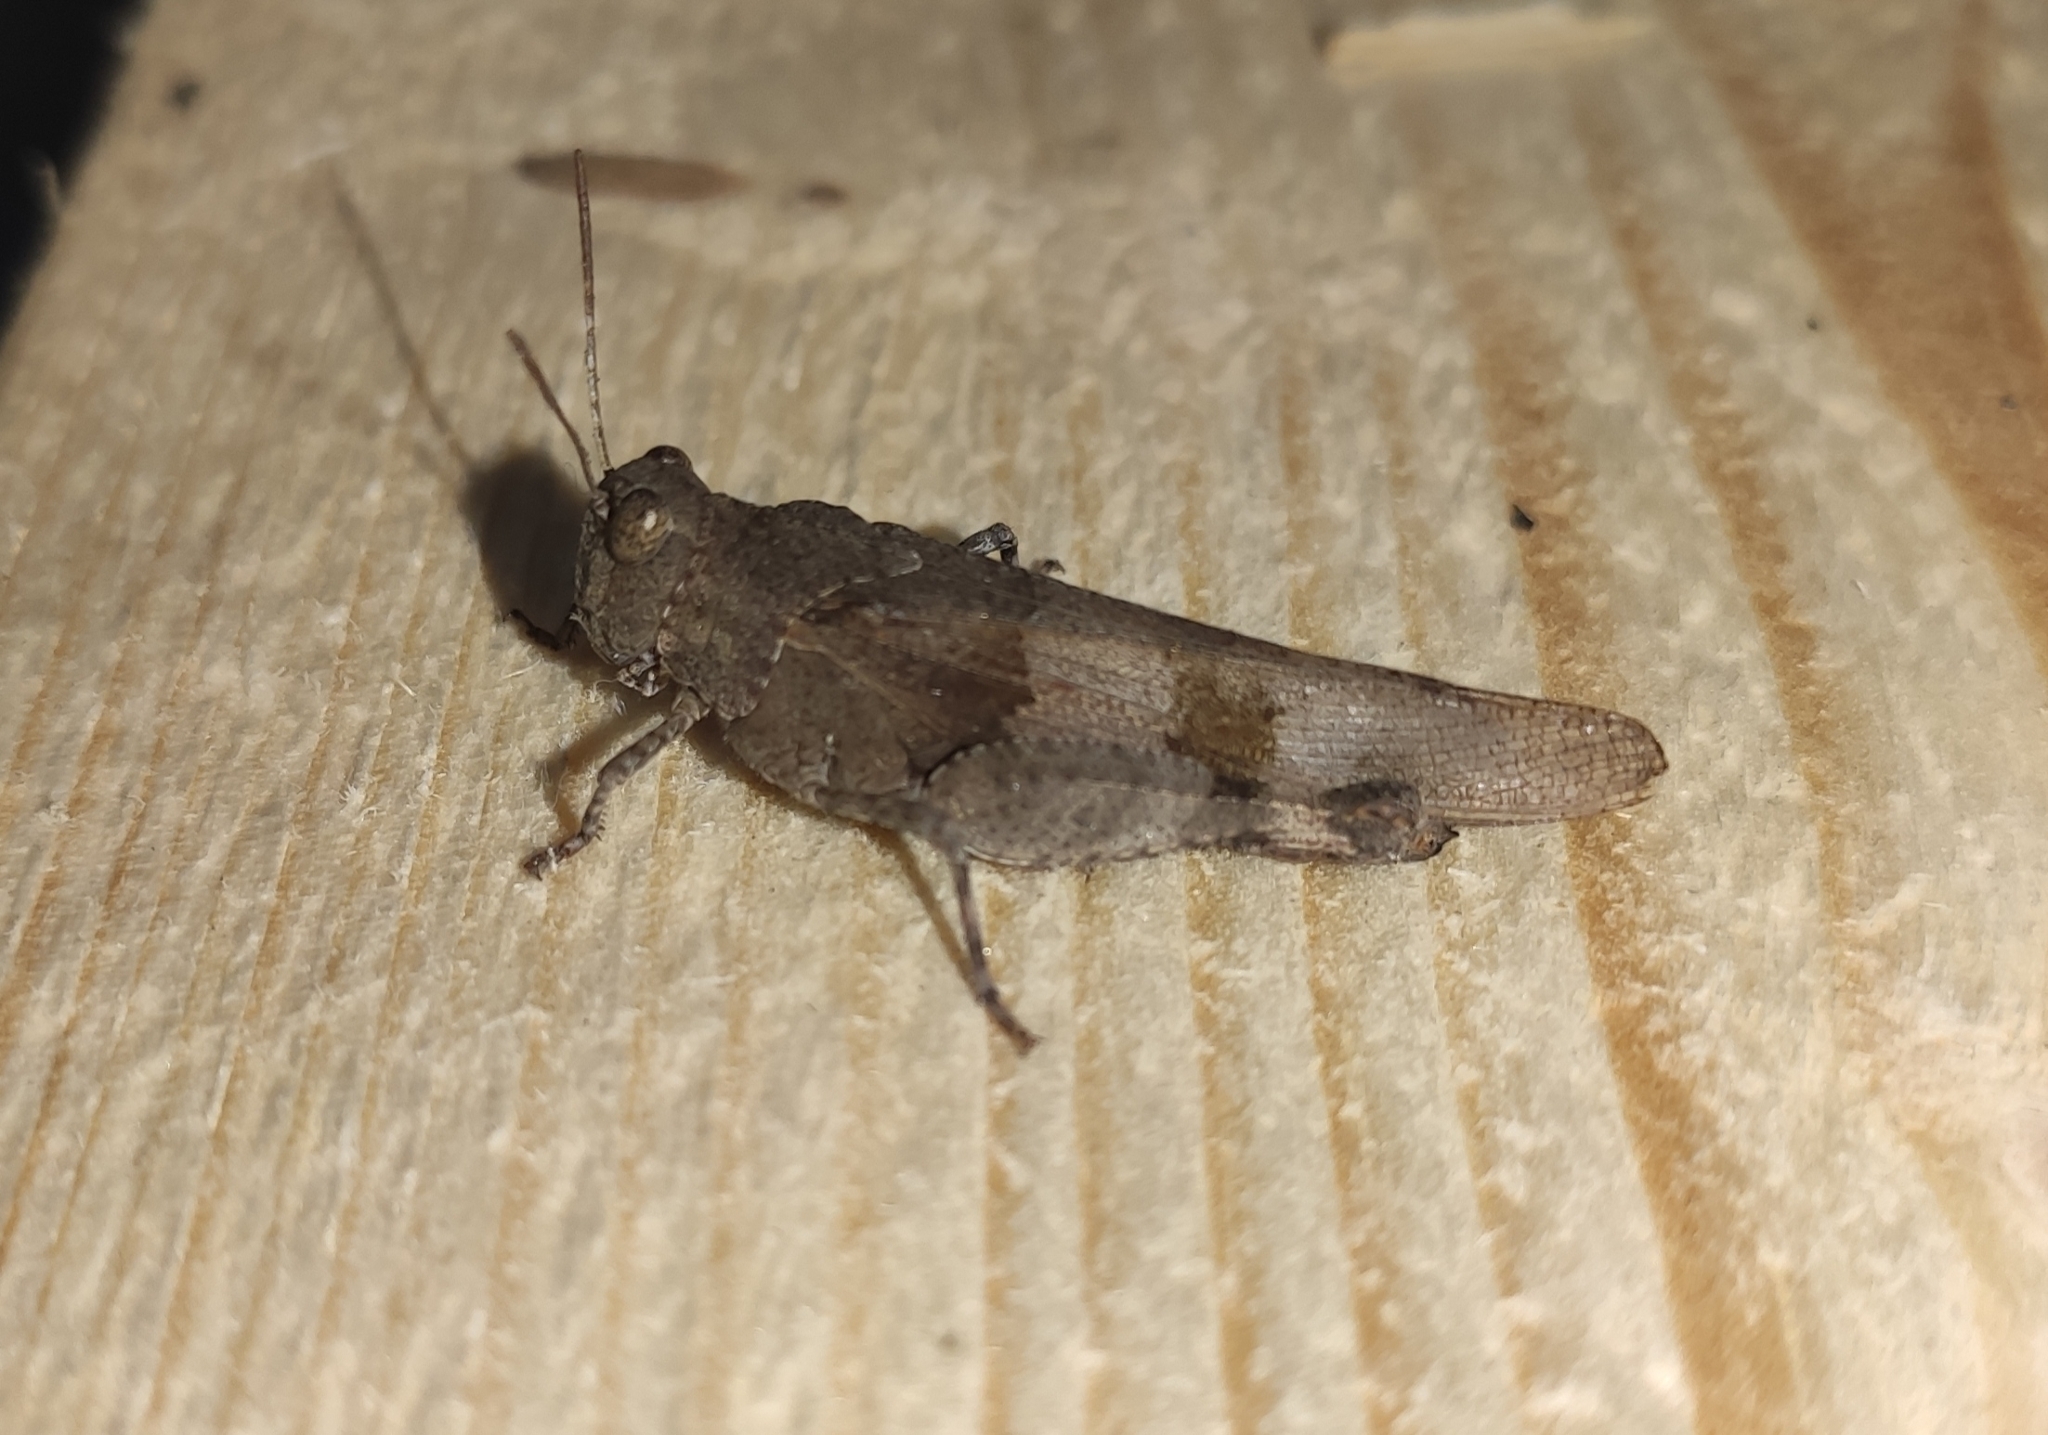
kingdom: Animalia
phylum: Arthropoda
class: Insecta
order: Orthoptera
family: Acrididae
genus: Oedipoda
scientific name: Oedipoda caerulescens
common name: Blue-winged grasshopper
